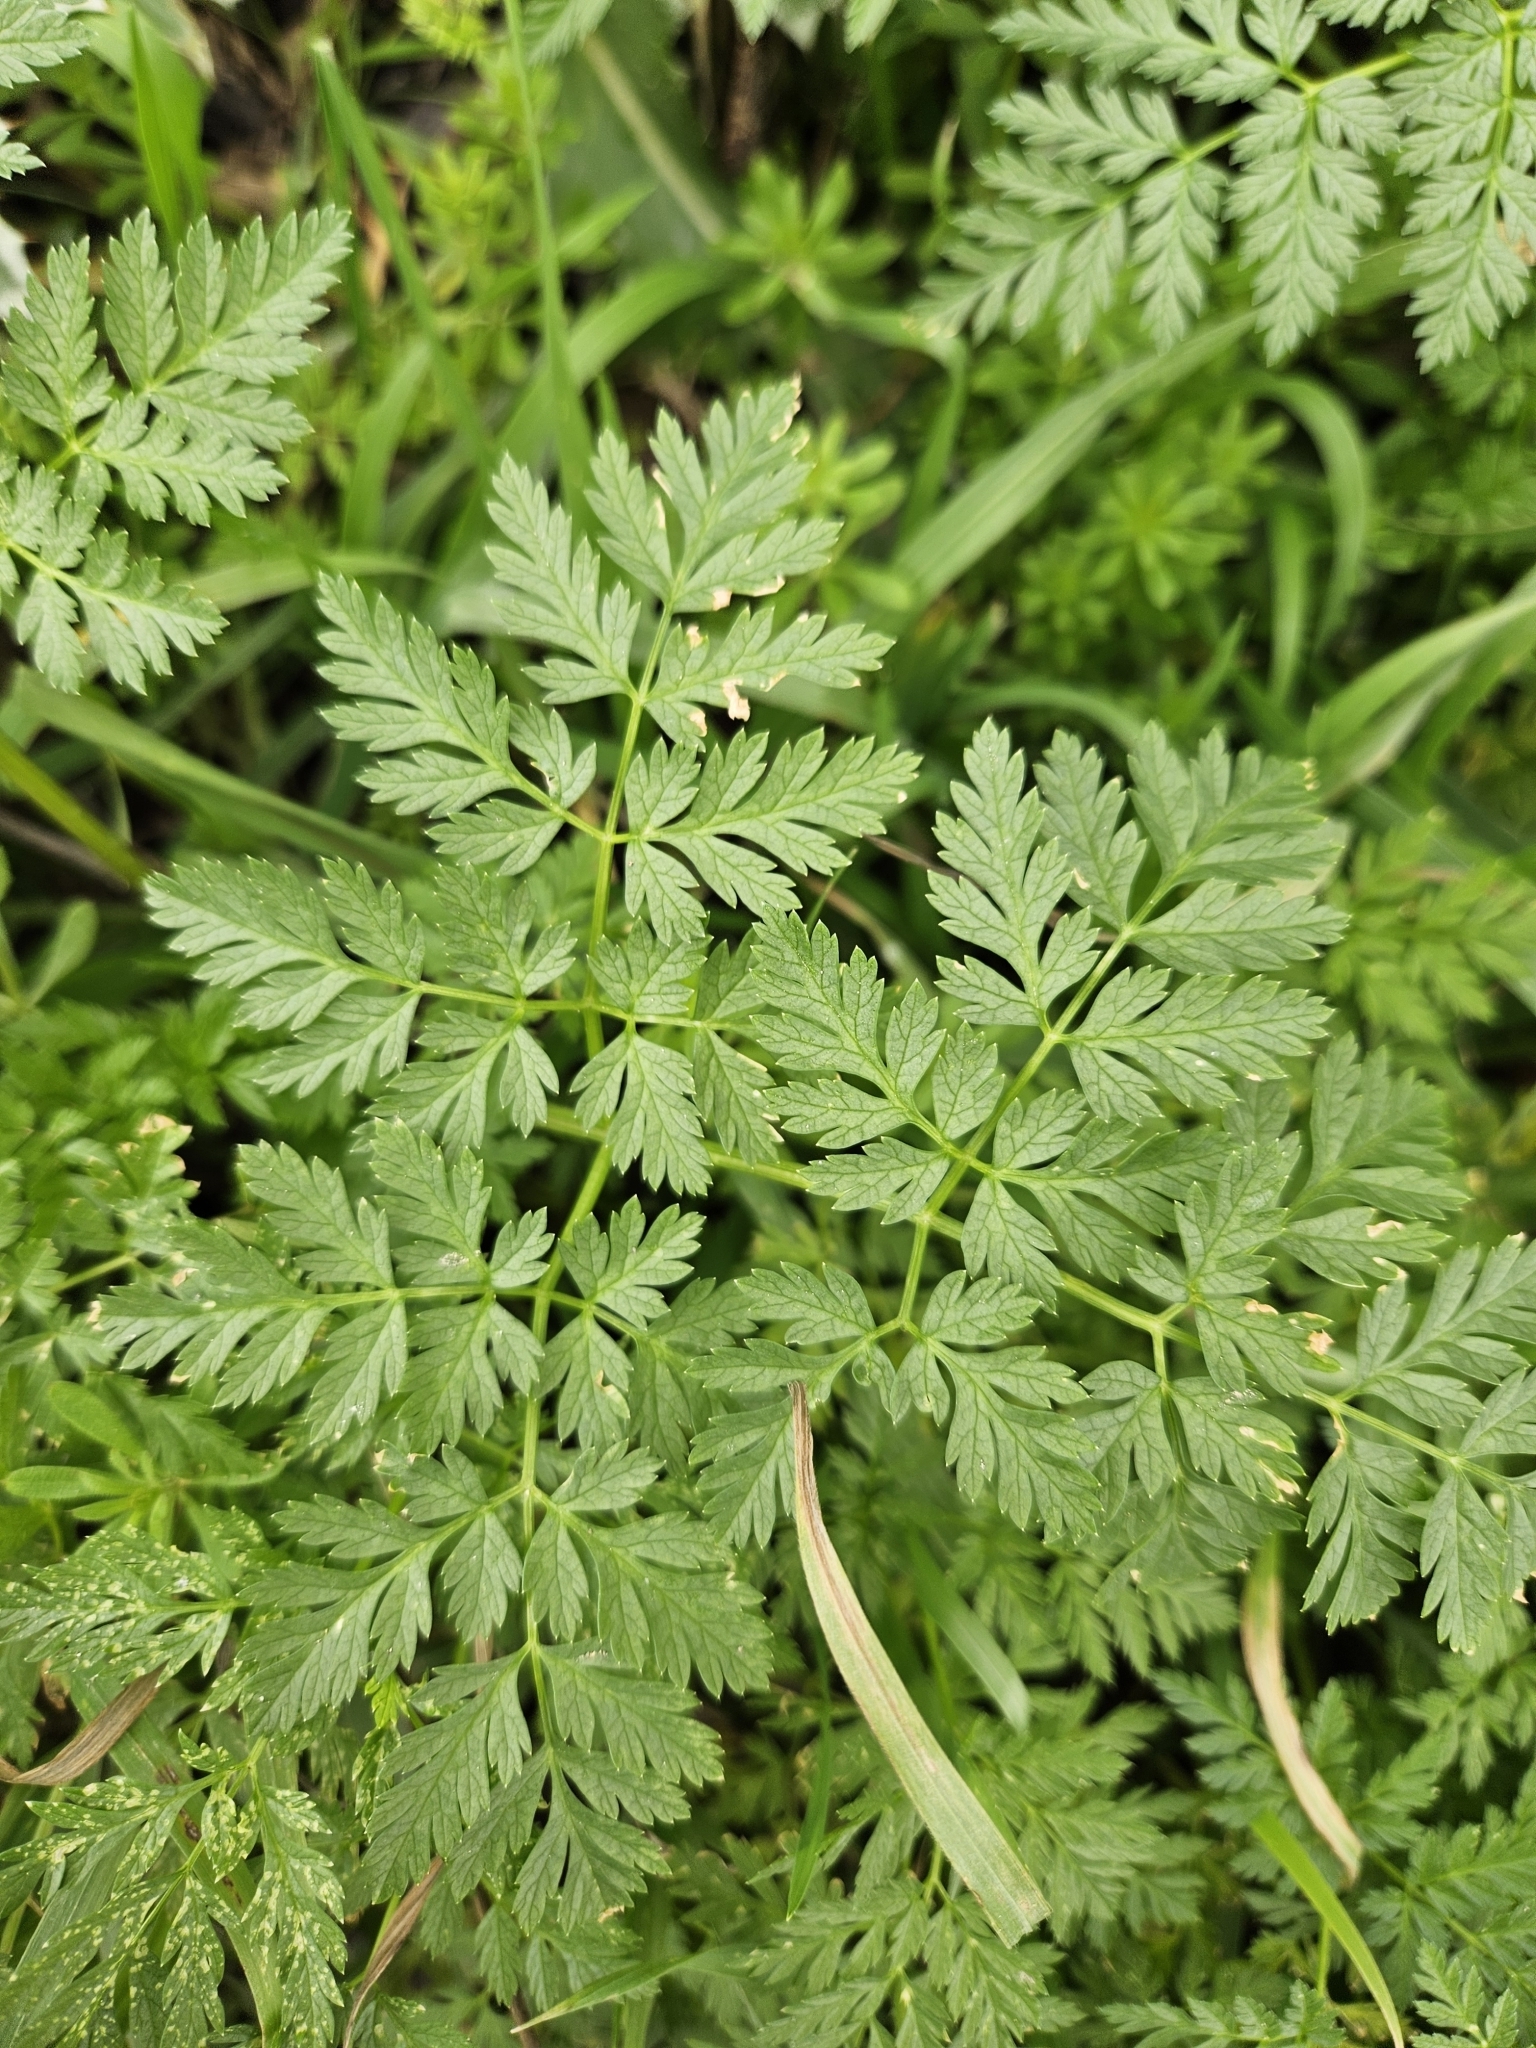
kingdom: Plantae
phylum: Tracheophyta
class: Magnoliopsida
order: Apiales
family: Apiaceae
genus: Conium
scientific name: Conium maculatum
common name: Hemlock
